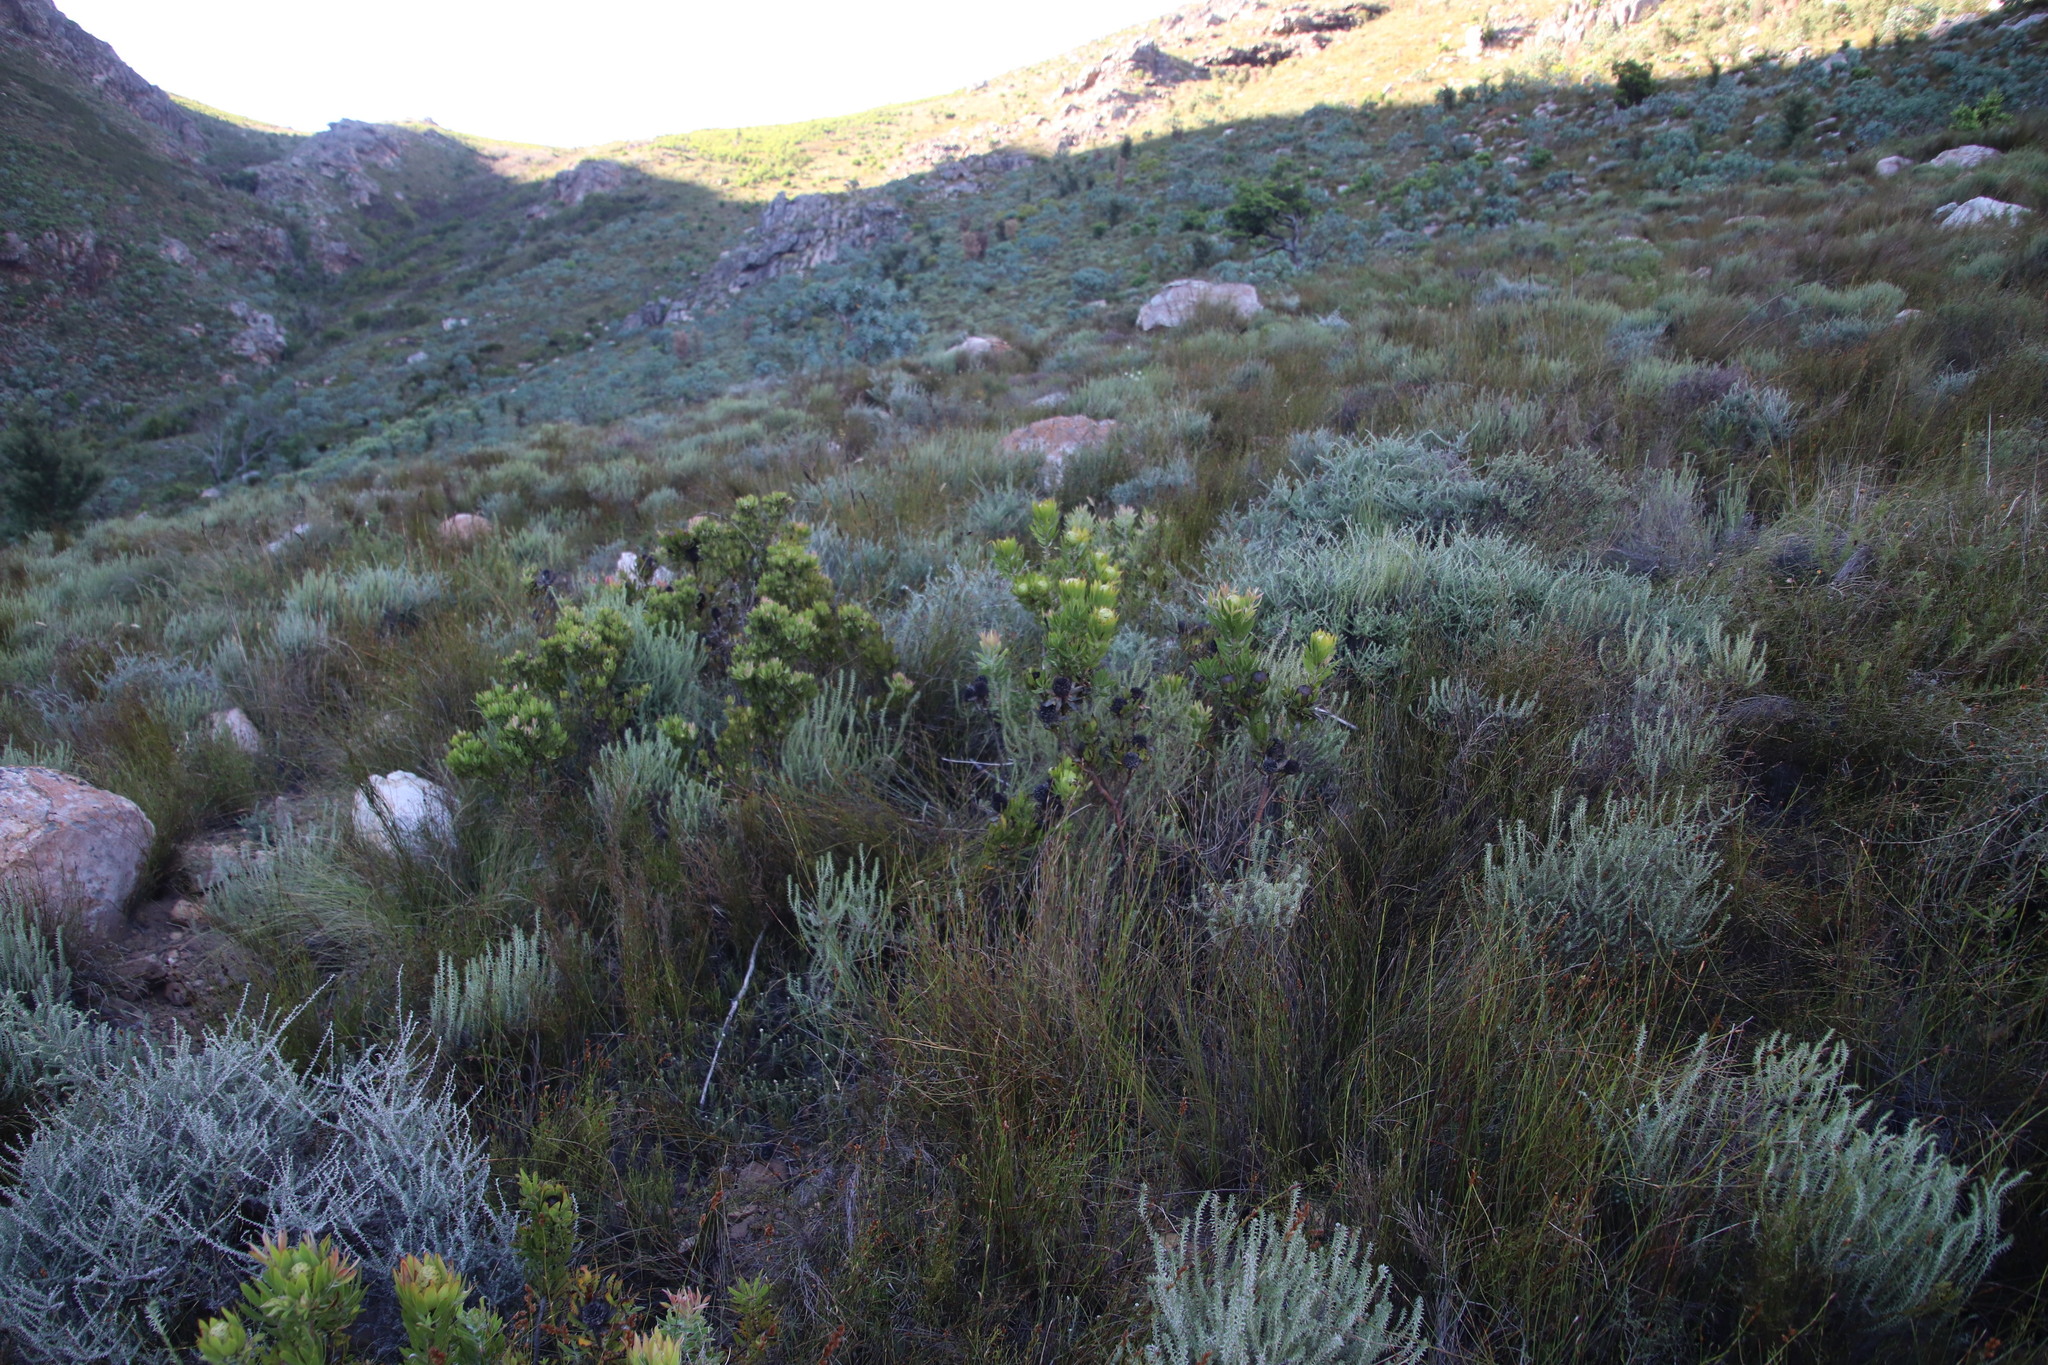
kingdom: Plantae
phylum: Tracheophyta
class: Magnoliopsida
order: Proteales
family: Proteaceae
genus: Leucadendron
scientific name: Leucadendron spissifolium
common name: Spear-leaf conebush
